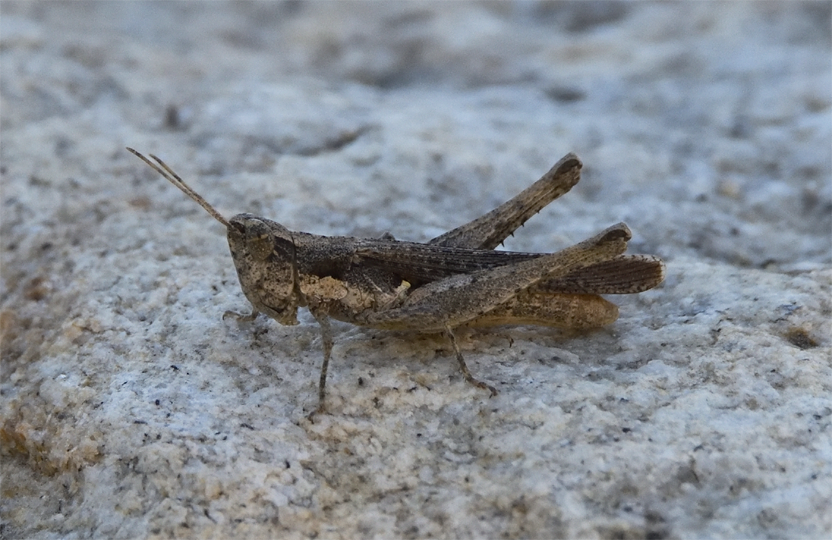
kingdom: Animalia
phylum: Arthropoda
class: Insecta
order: Orthoptera
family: Acrididae
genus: Horesidotes
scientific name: Horesidotes cinereus
